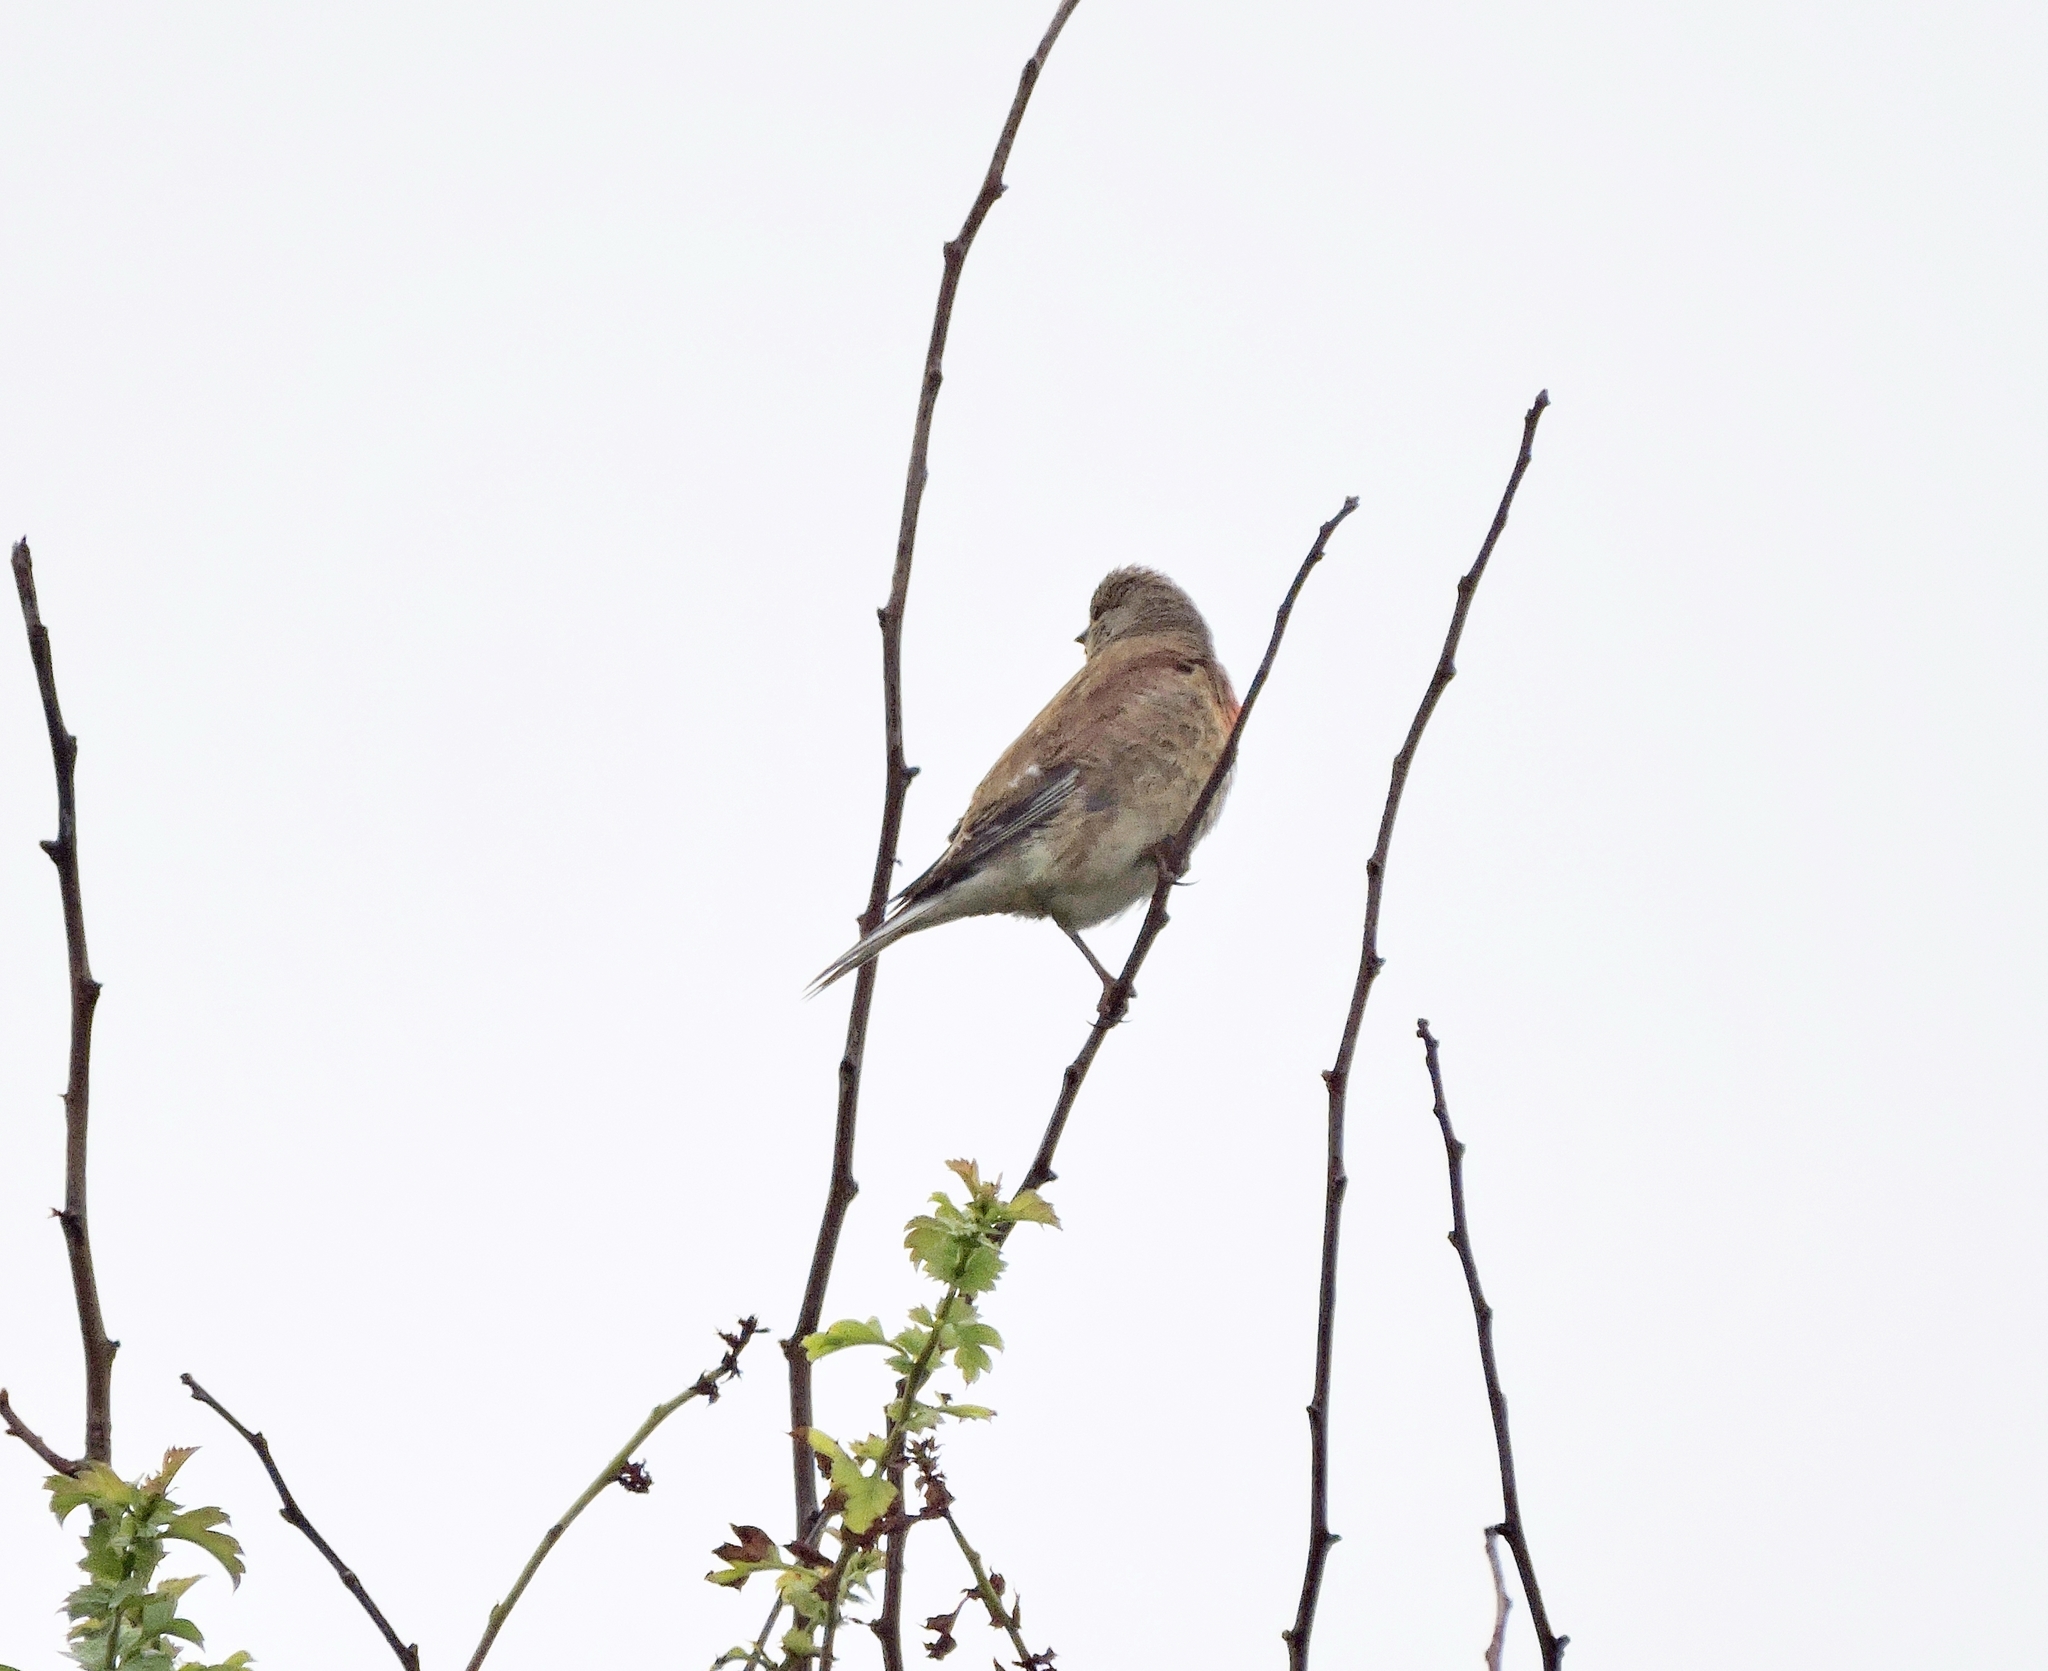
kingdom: Animalia
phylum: Chordata
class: Aves
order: Passeriformes
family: Fringillidae
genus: Linaria
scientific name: Linaria cannabina
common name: Common linnet
